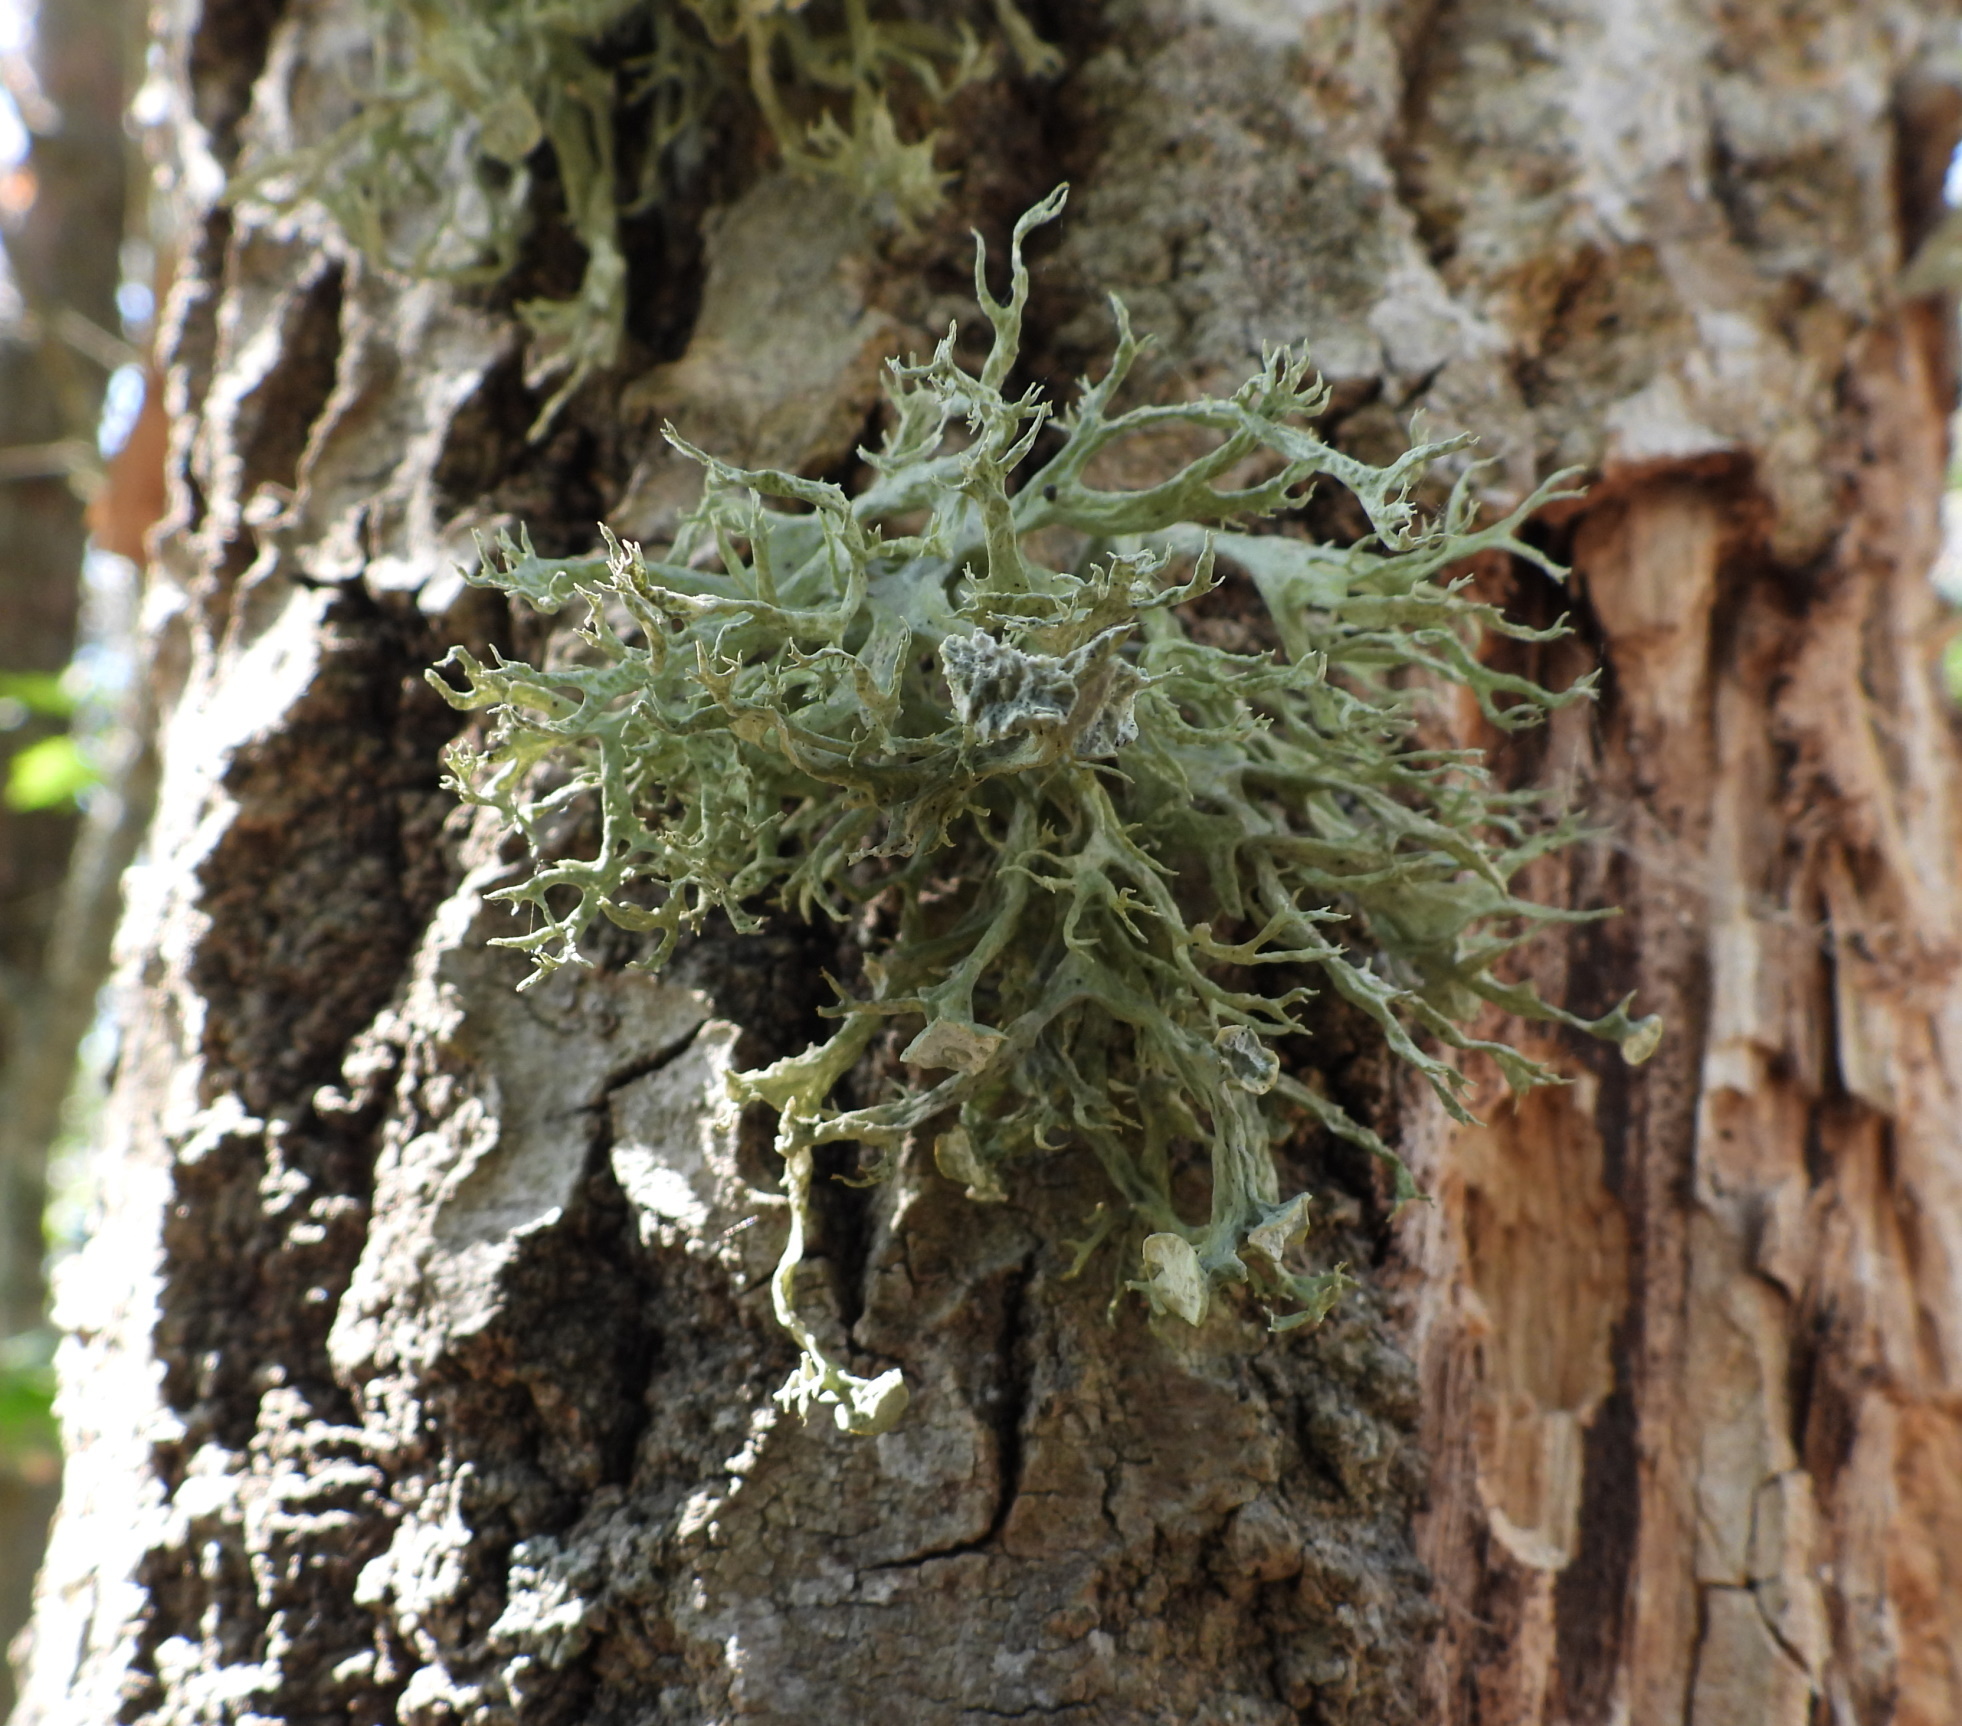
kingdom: Fungi
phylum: Ascomycota
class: Lecanoromycetes
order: Lecanorales
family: Ramalinaceae
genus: Ramalina
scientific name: Ramalina fastigiata
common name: Dotted ribbon lichen
